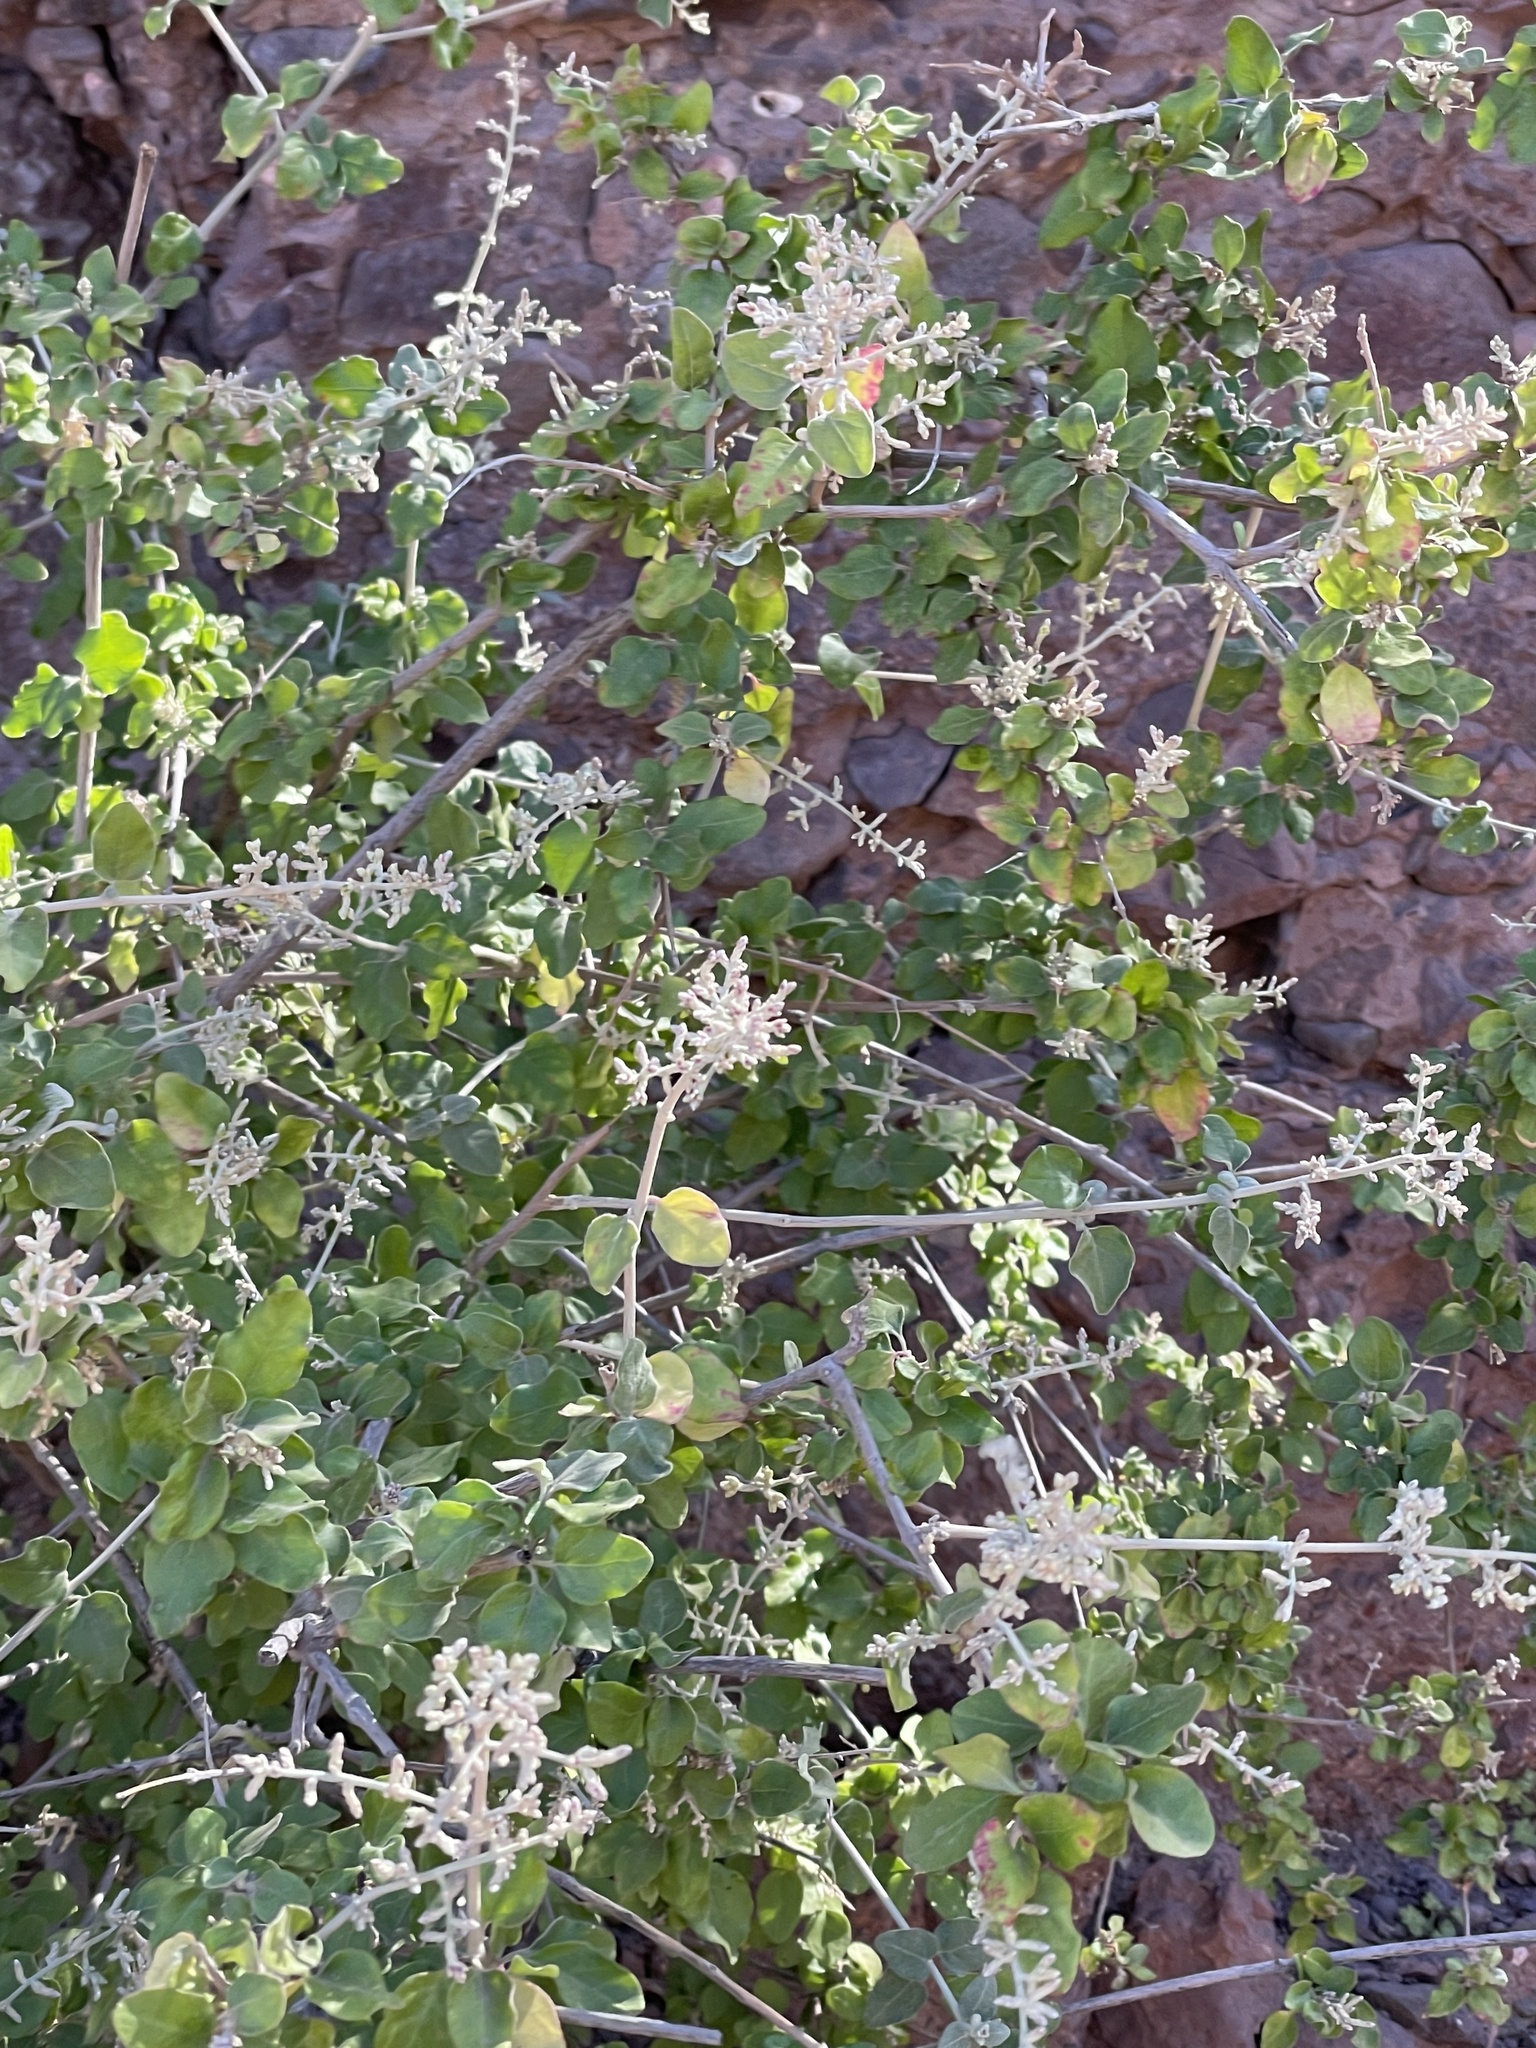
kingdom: Plantae
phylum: Tracheophyta
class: Magnoliopsida
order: Caryophyllales
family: Amaranthaceae
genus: Iresine
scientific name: Iresine alternifolia
